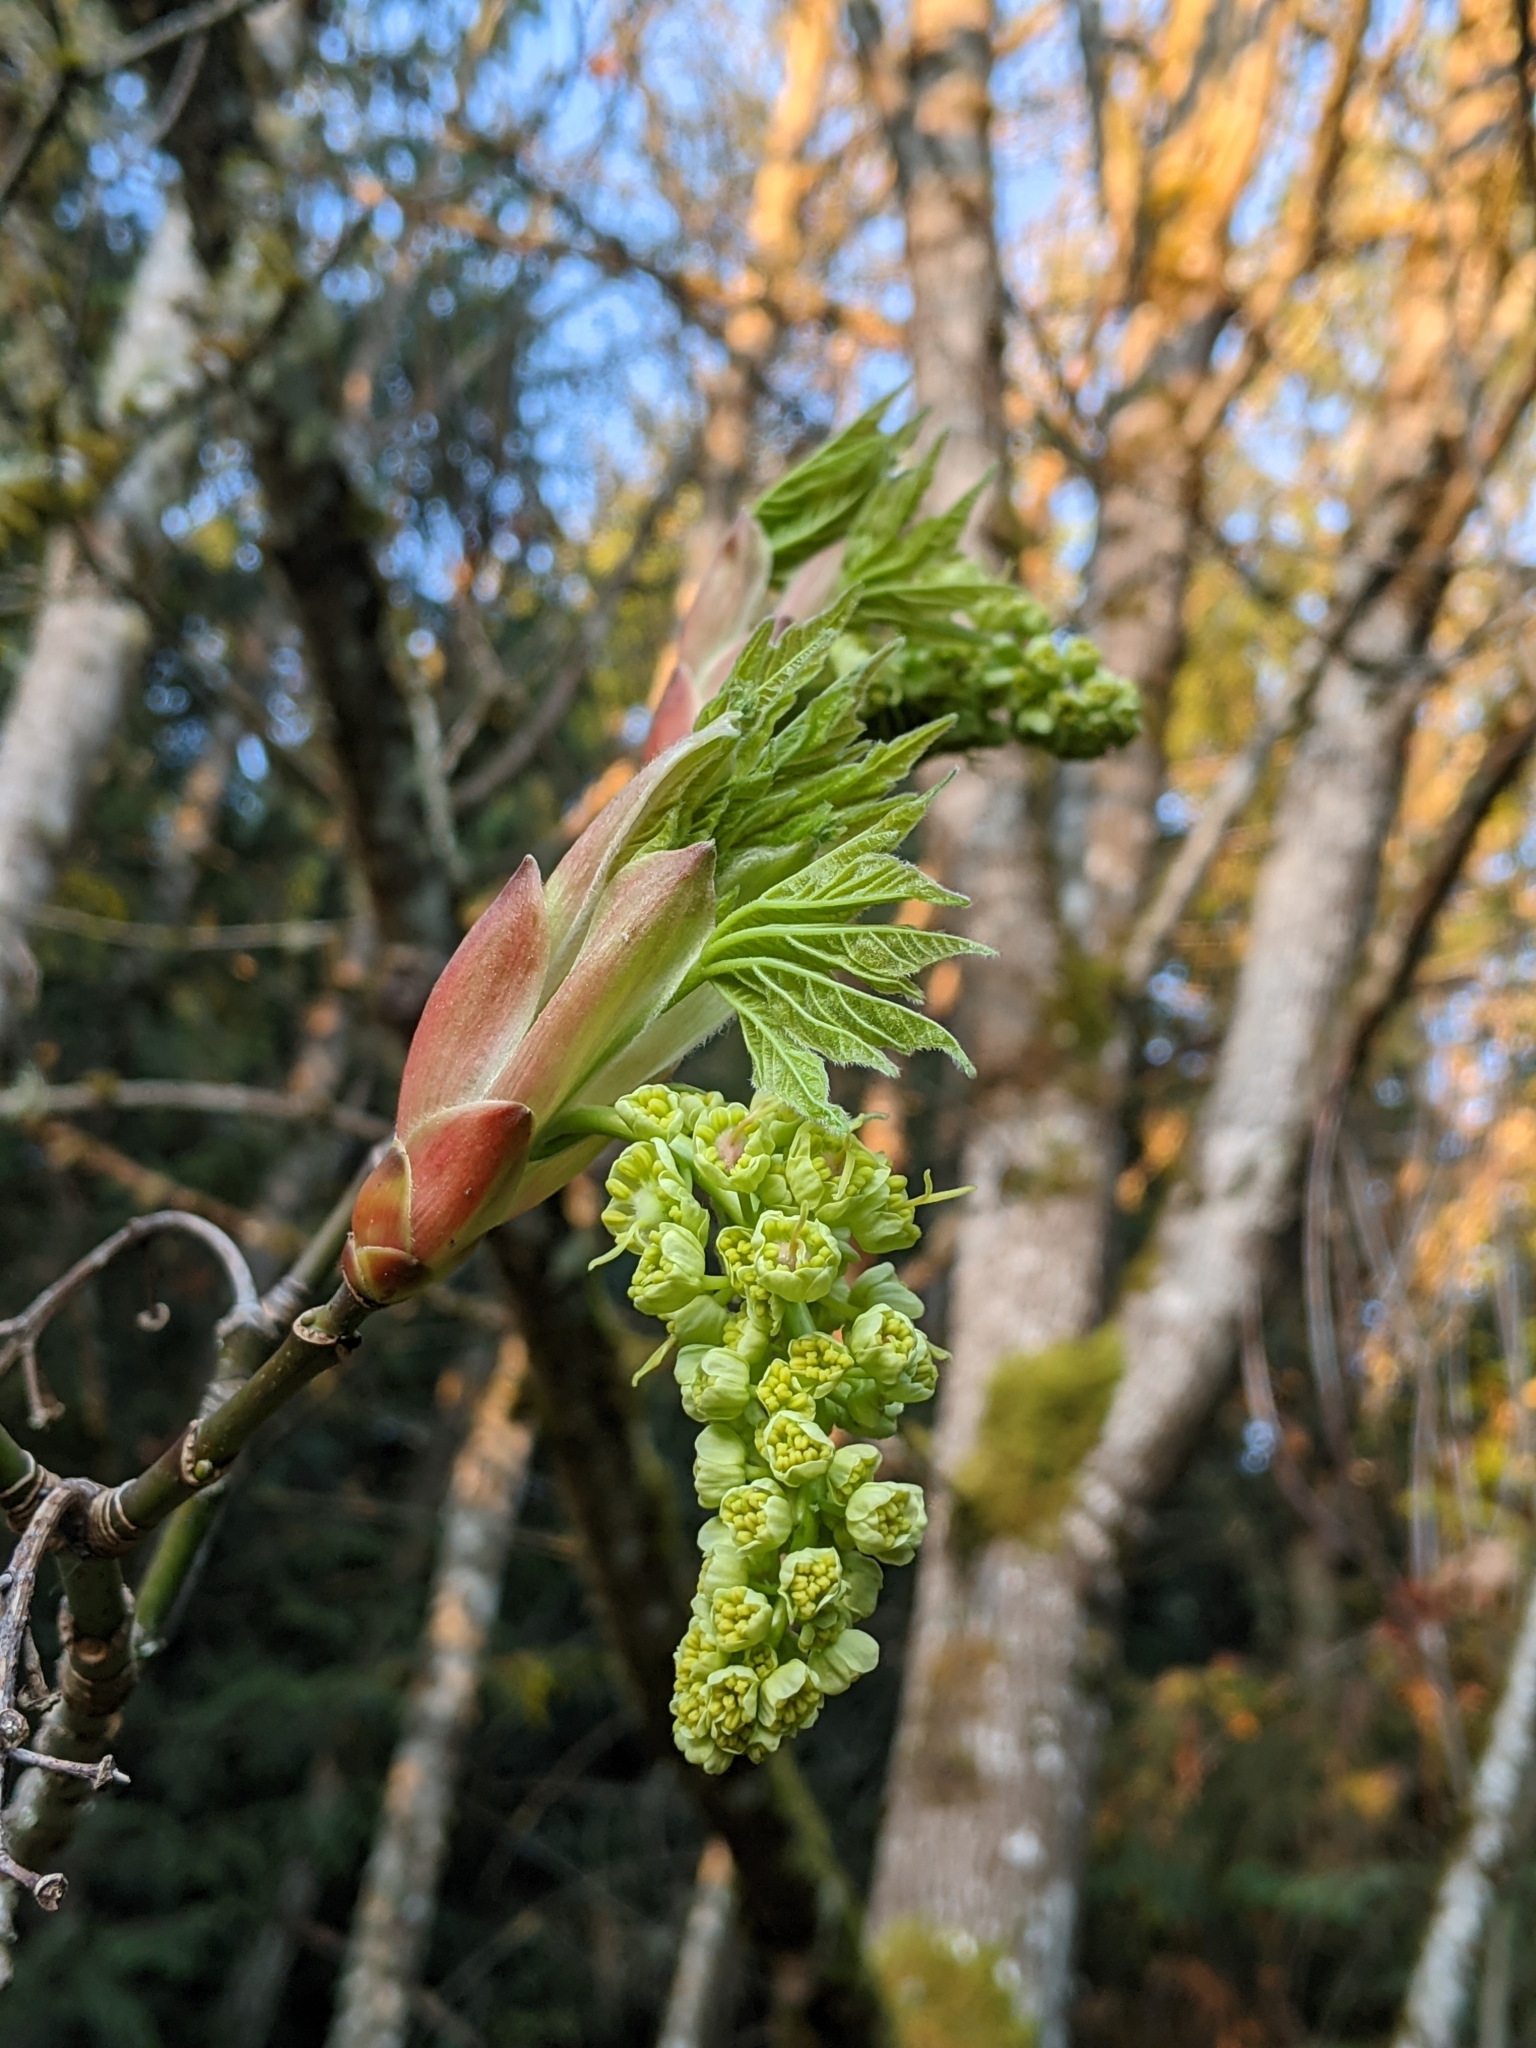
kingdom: Plantae
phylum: Tracheophyta
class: Magnoliopsida
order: Sapindales
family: Sapindaceae
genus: Acer
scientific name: Acer macrophyllum
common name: Oregon maple
